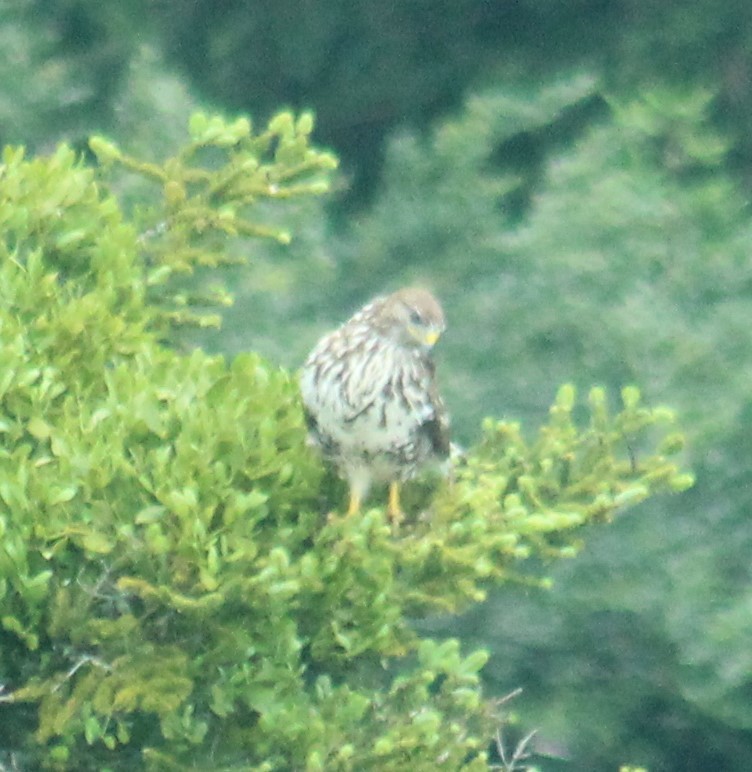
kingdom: Animalia
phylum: Chordata
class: Aves
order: Accipitriformes
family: Accipitridae
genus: Buteo
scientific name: Buteo buteo
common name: Common buzzard
